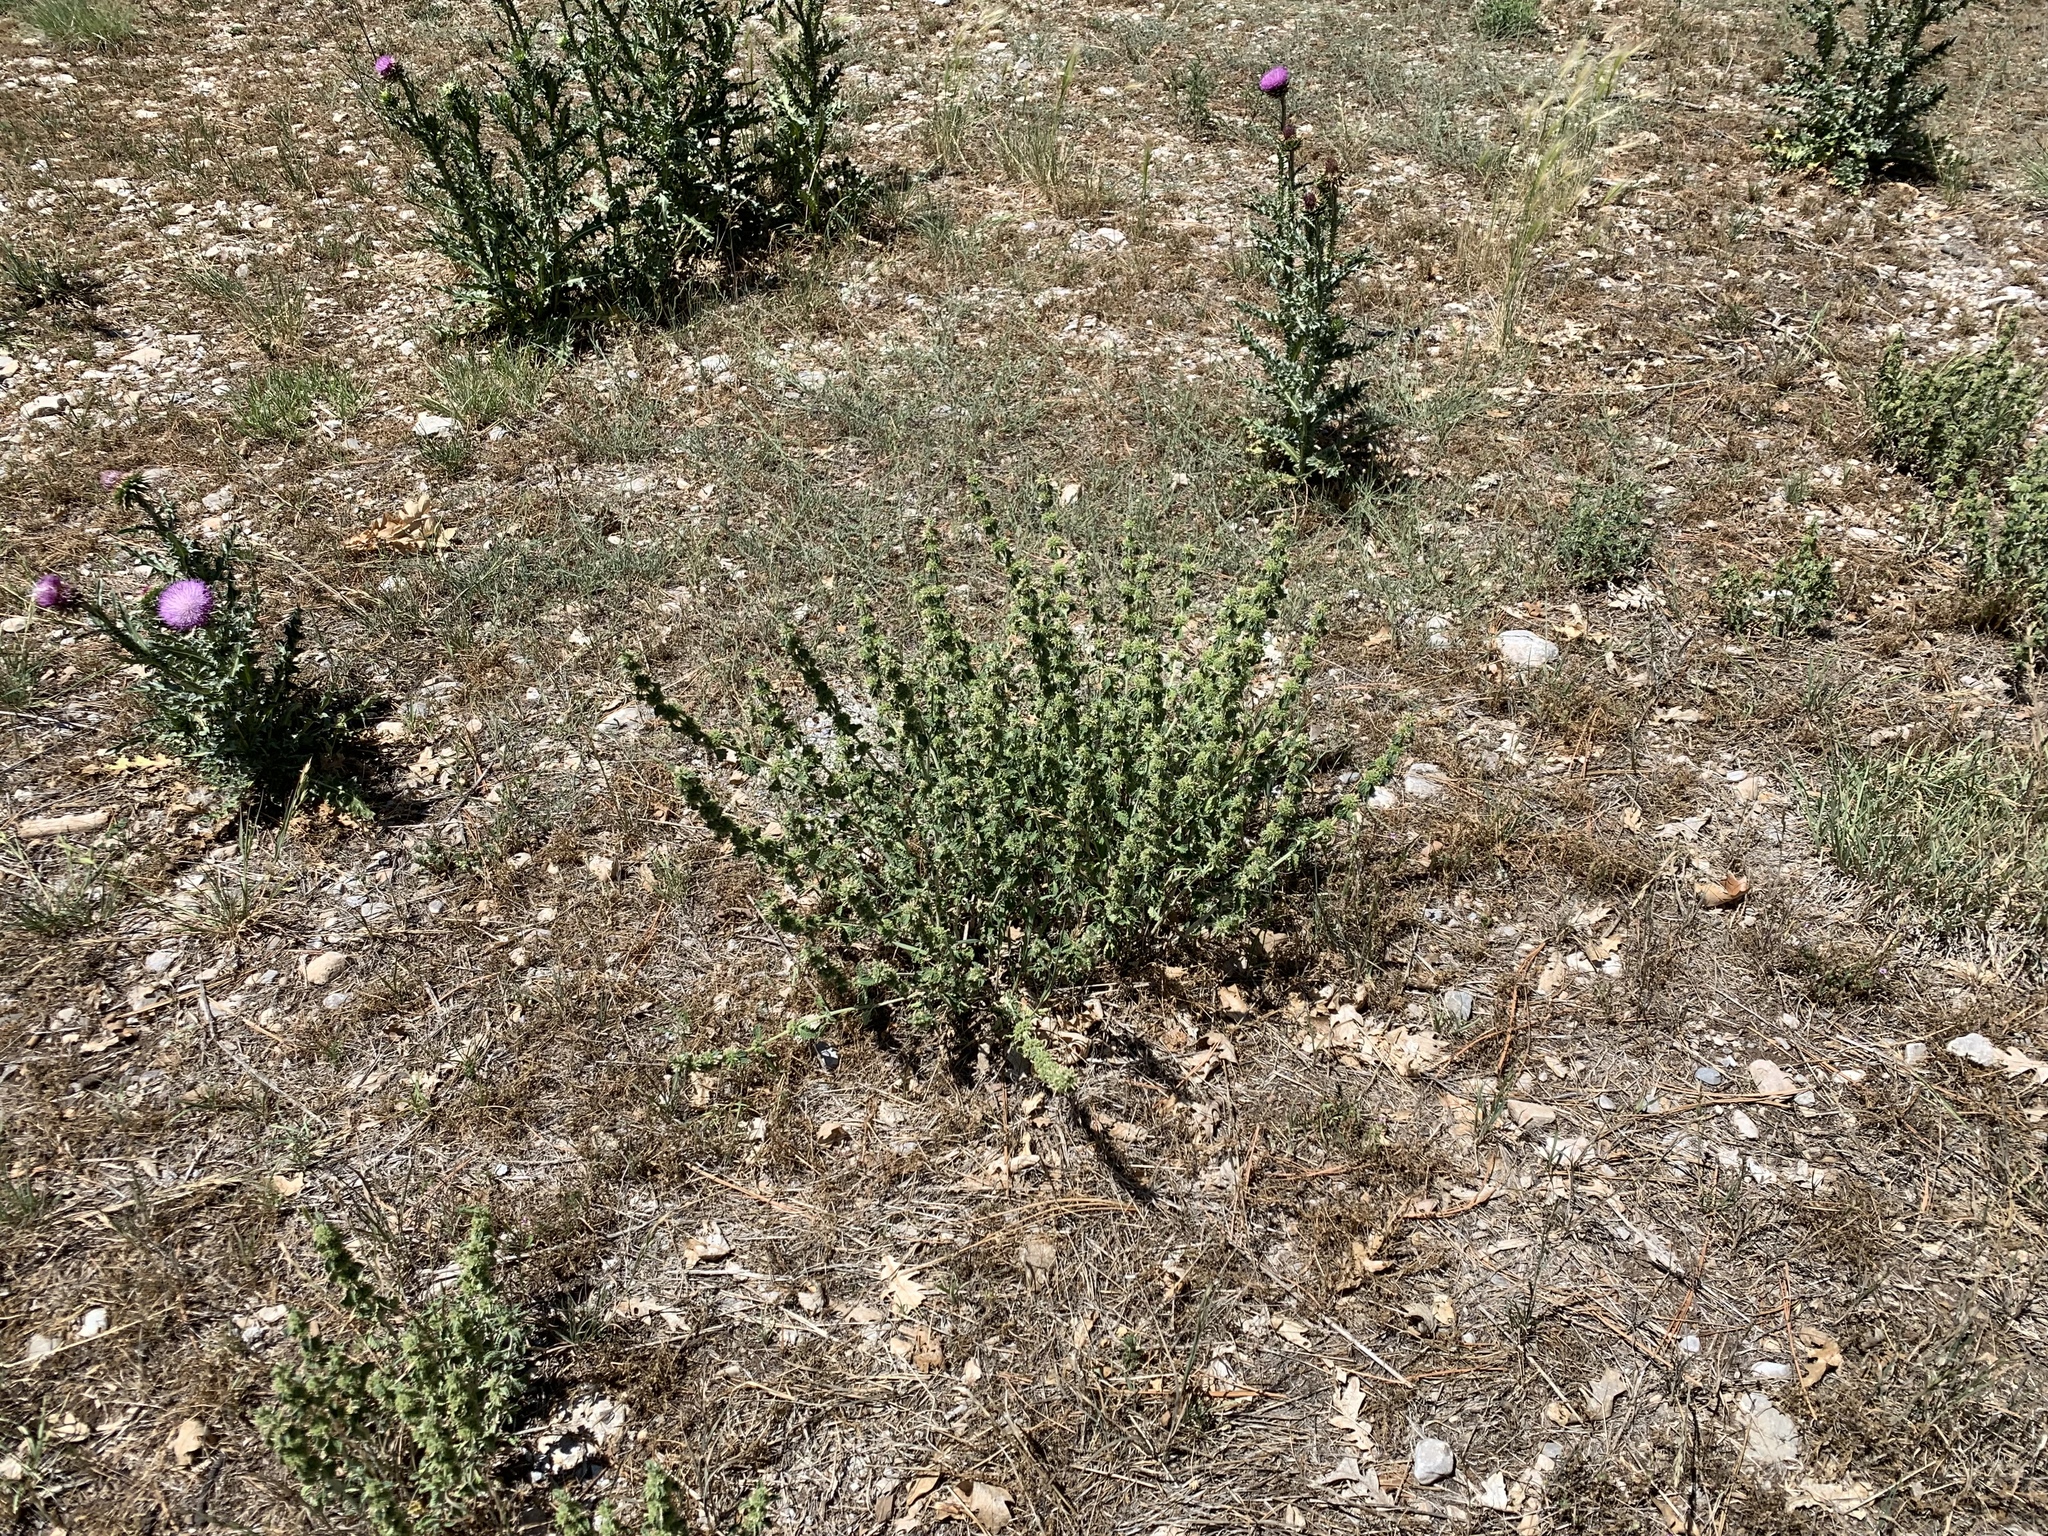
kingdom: Plantae
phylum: Tracheophyta
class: Magnoliopsida
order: Lamiales
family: Lamiaceae
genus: Marrubium
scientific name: Marrubium vulgare
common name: Horehound
